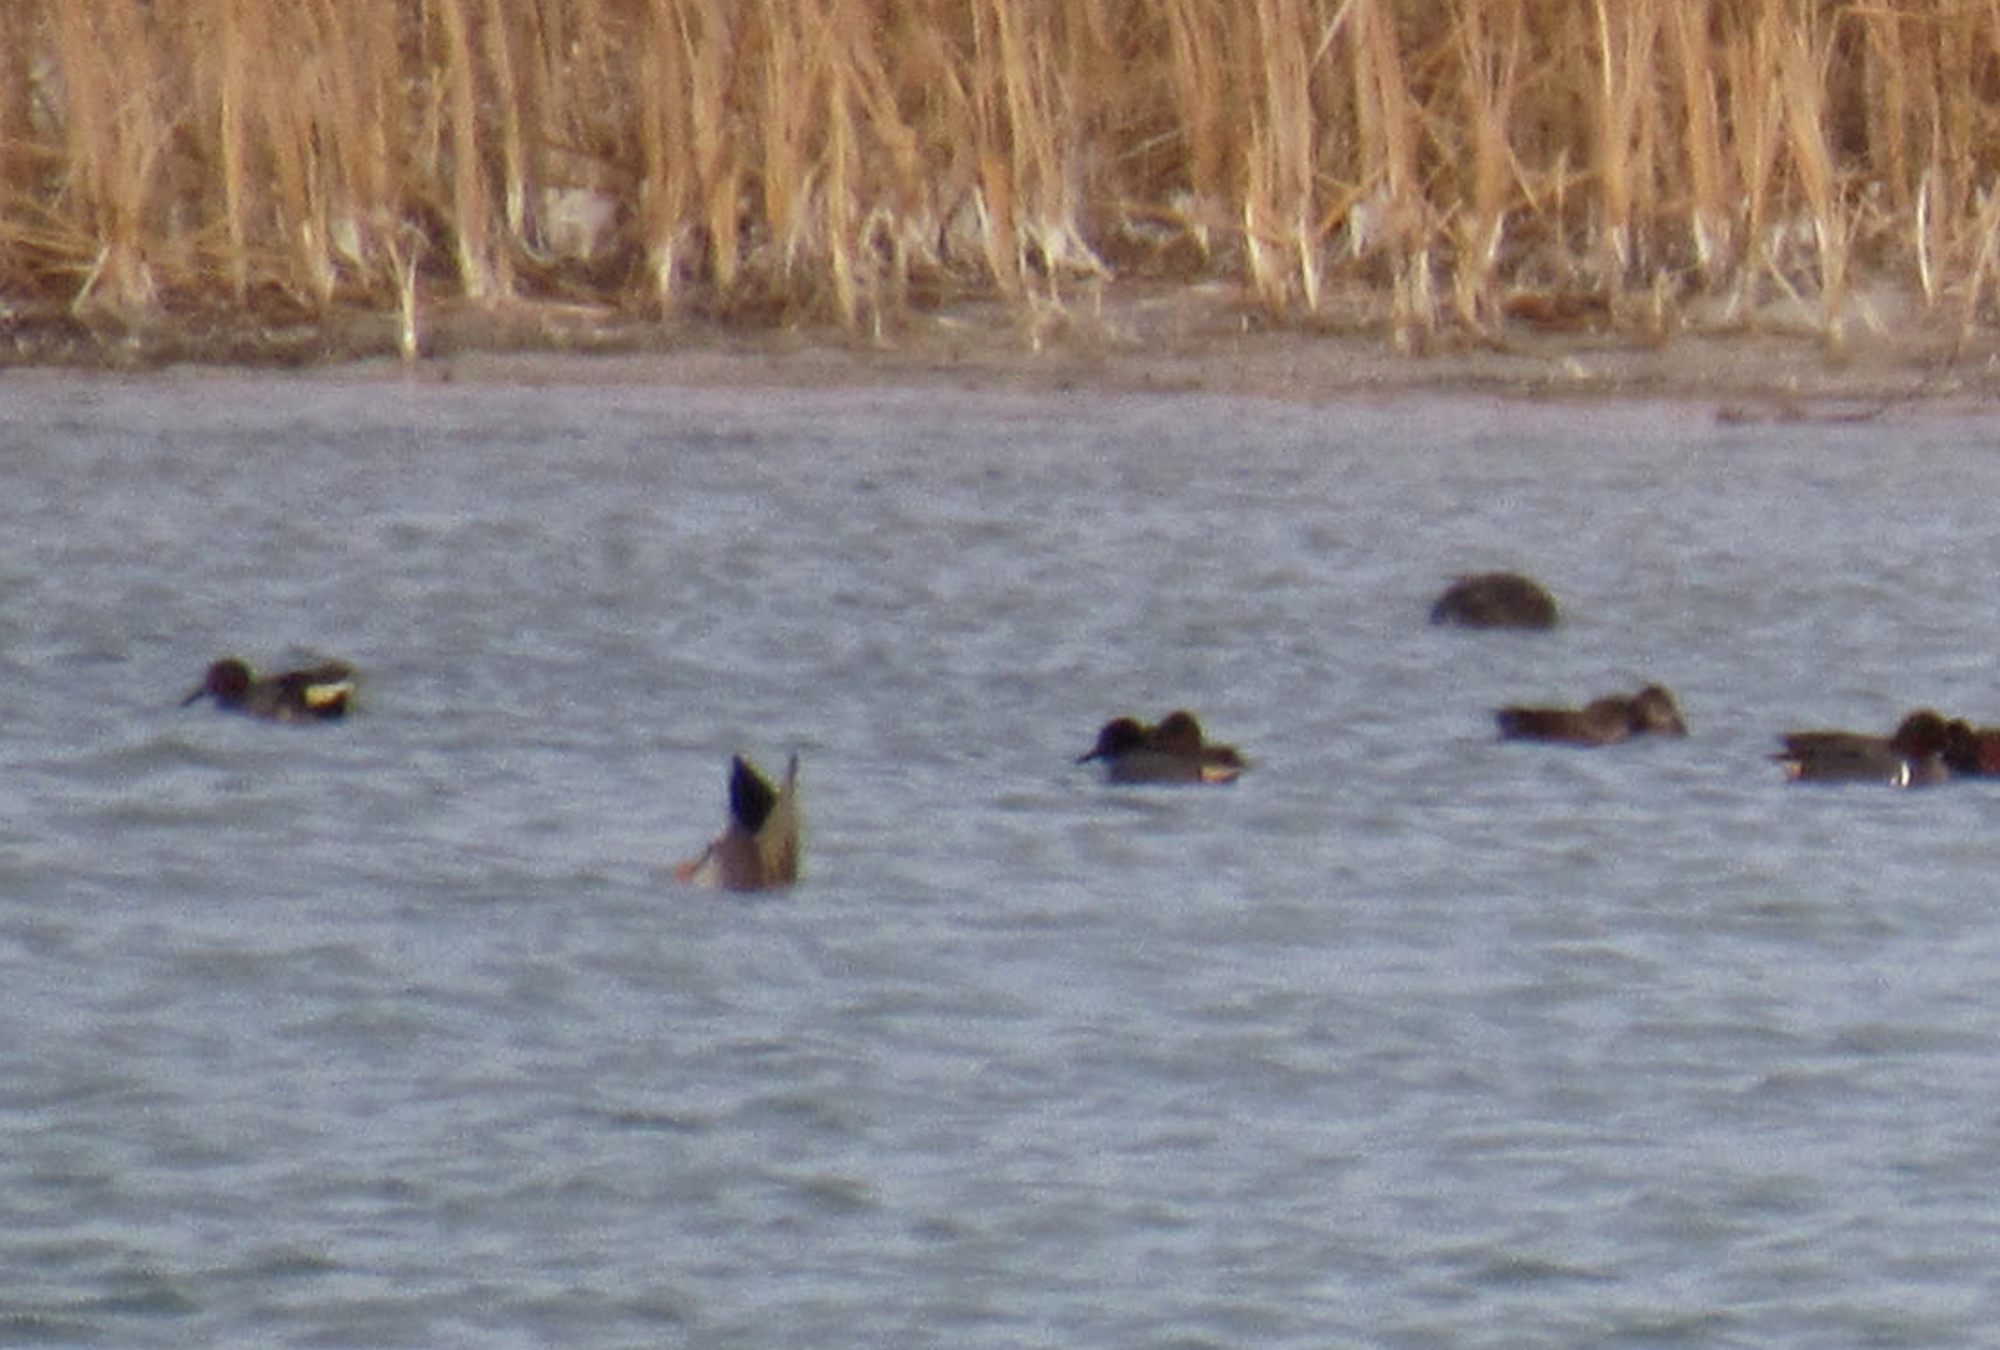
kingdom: Animalia
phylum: Chordata
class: Aves
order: Anseriformes
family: Anatidae
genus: Anas
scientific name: Anas crecca
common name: Eurasian teal
